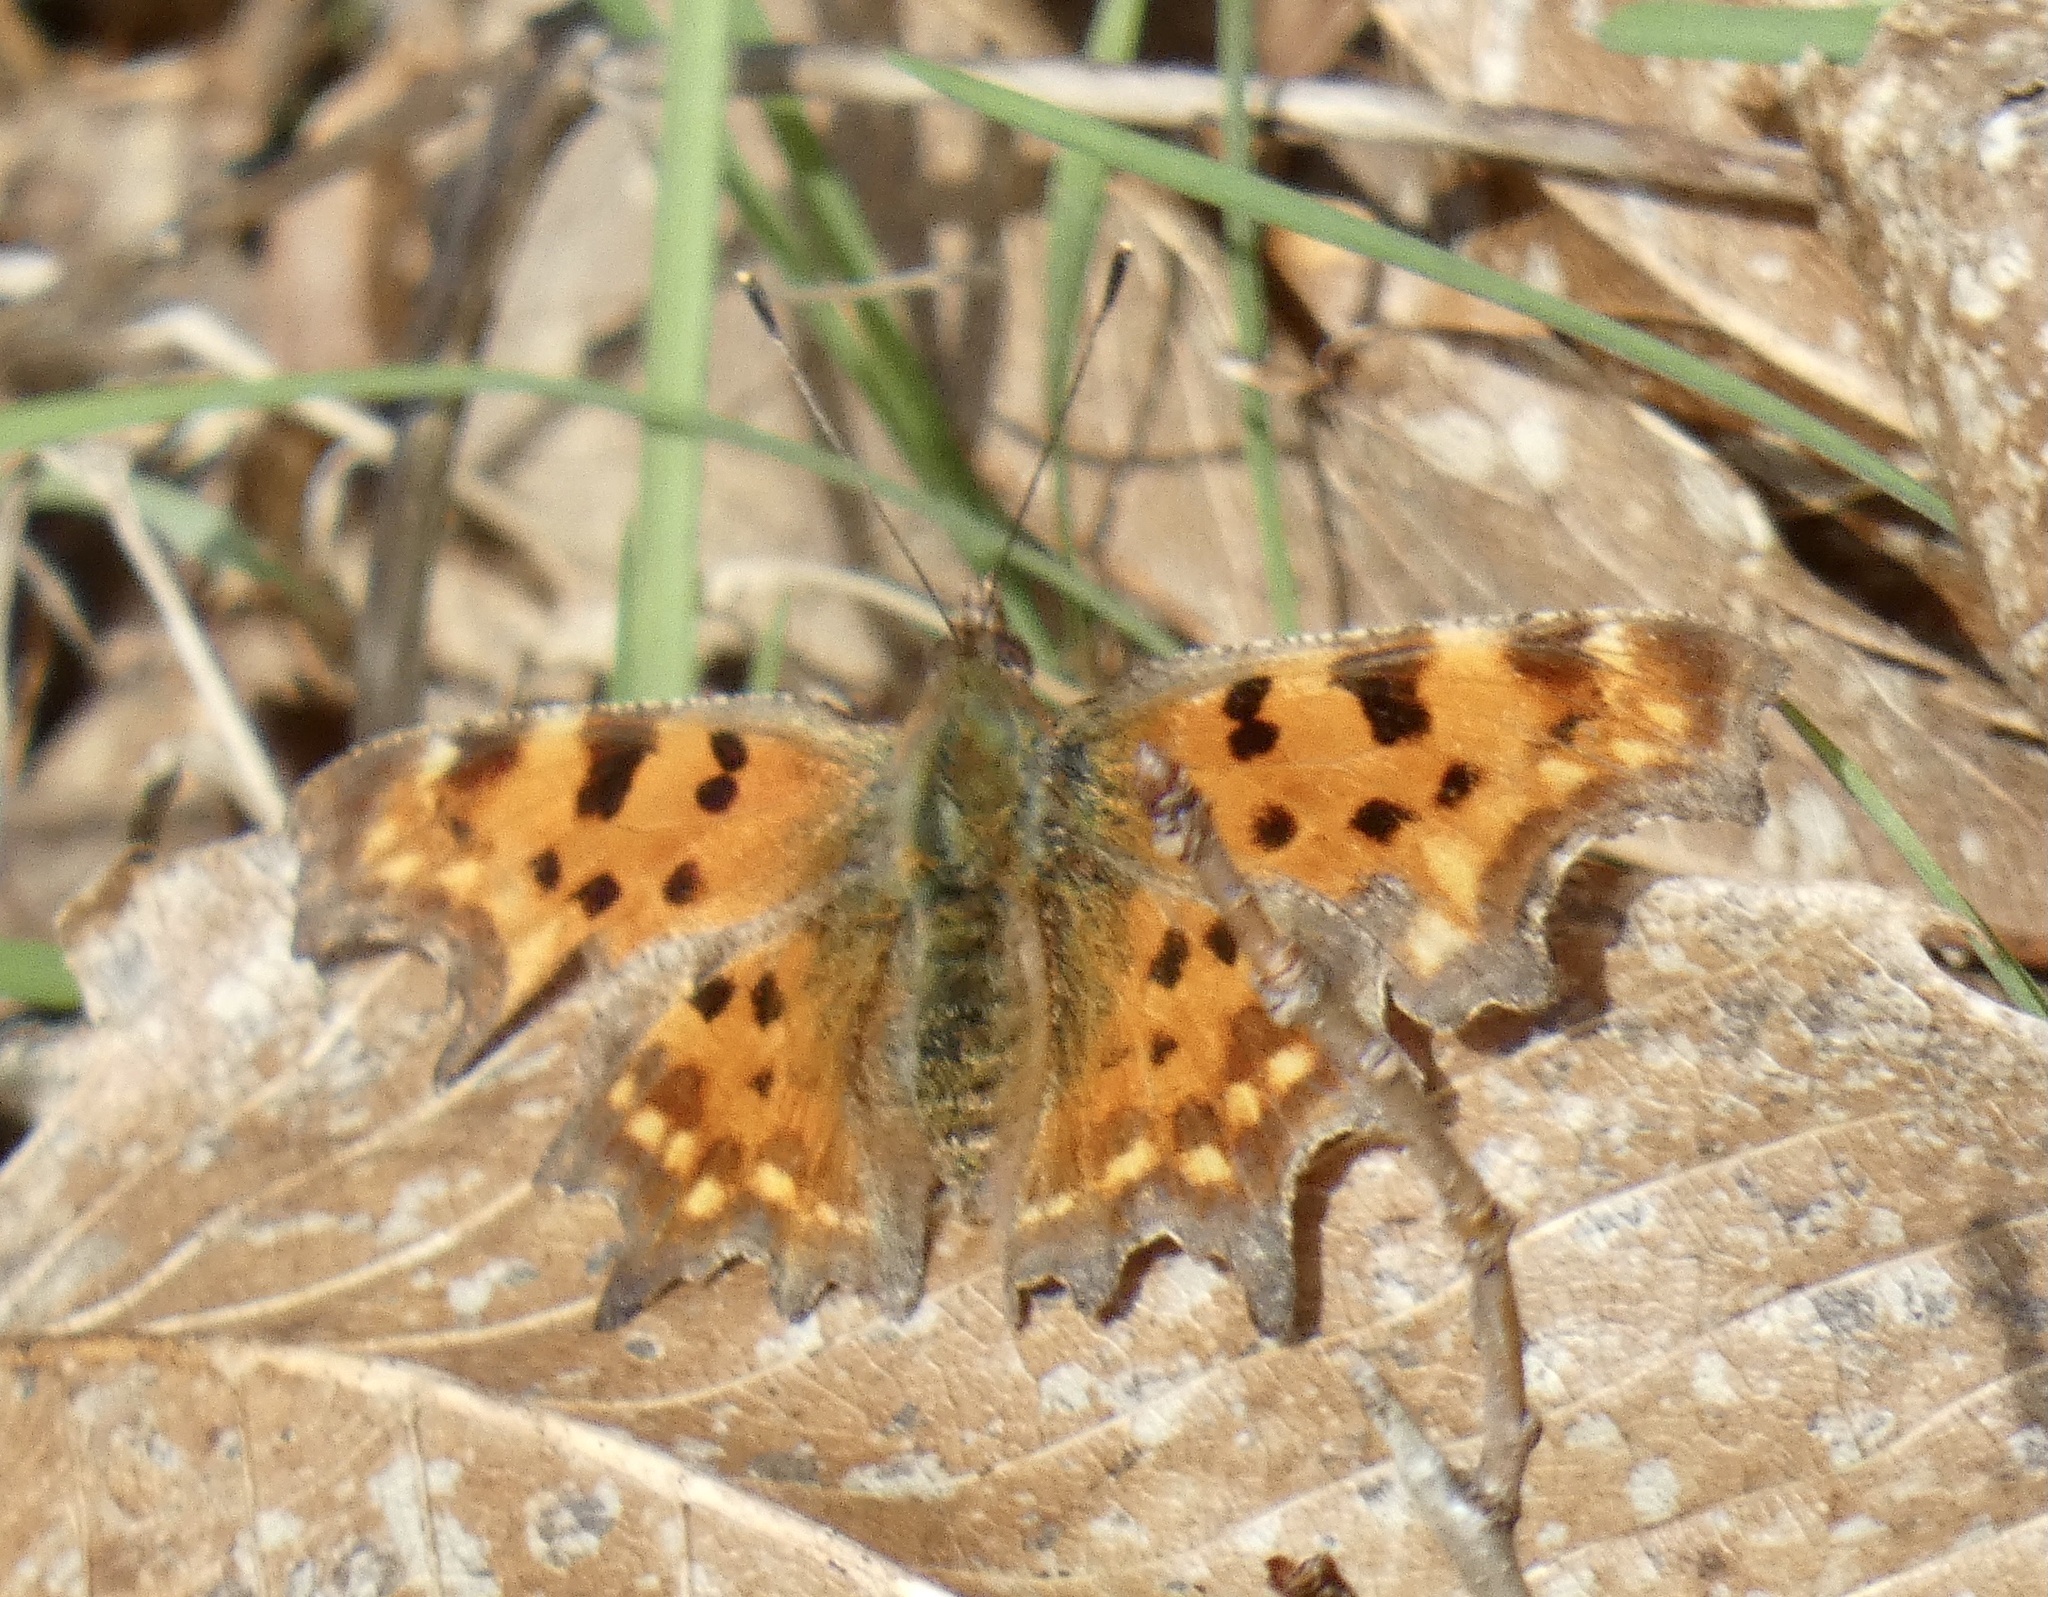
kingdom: Animalia
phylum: Arthropoda
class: Insecta
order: Lepidoptera
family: Nymphalidae
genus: Polygonia
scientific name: Polygonia c-album
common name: Comma
